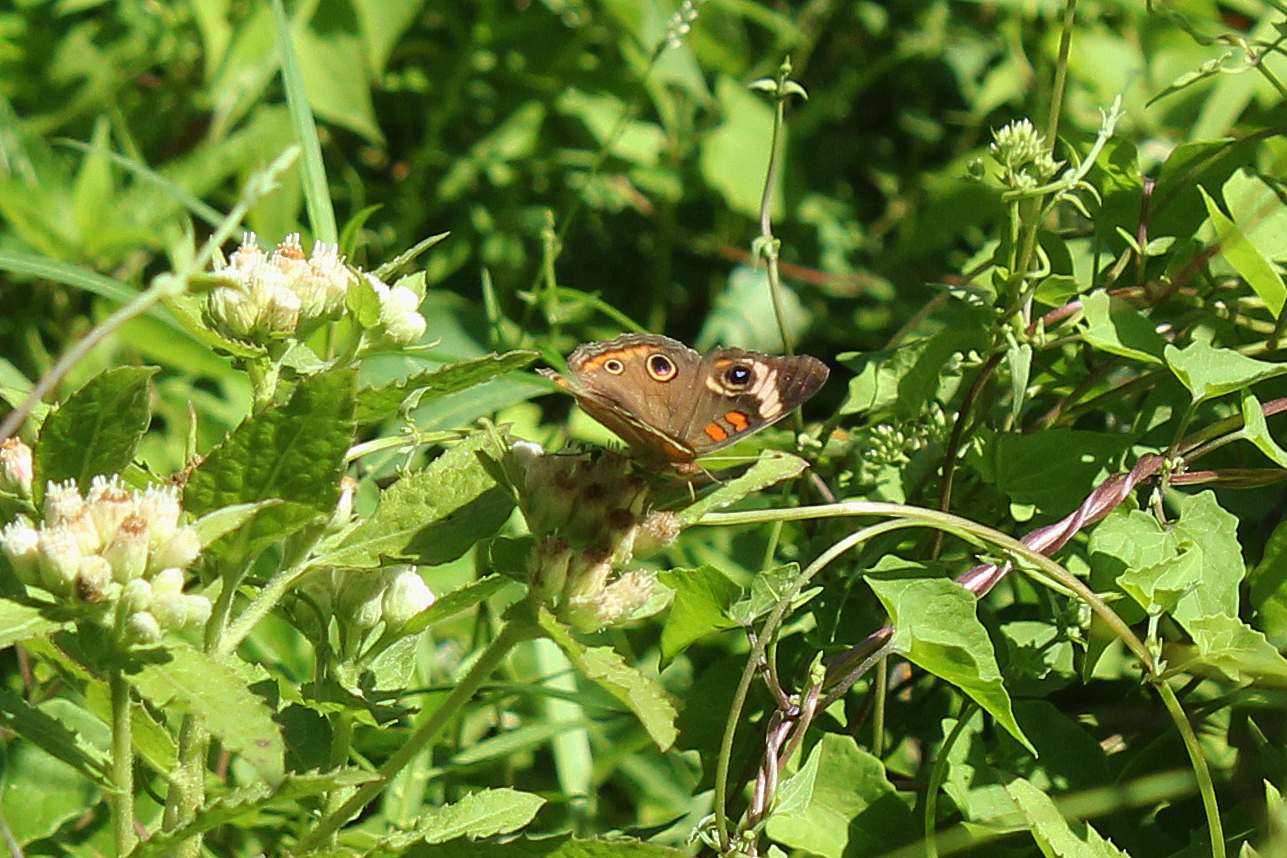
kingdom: Animalia
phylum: Arthropoda
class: Insecta
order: Lepidoptera
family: Nymphalidae
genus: Junonia
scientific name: Junonia coenia
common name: Common buckeye
